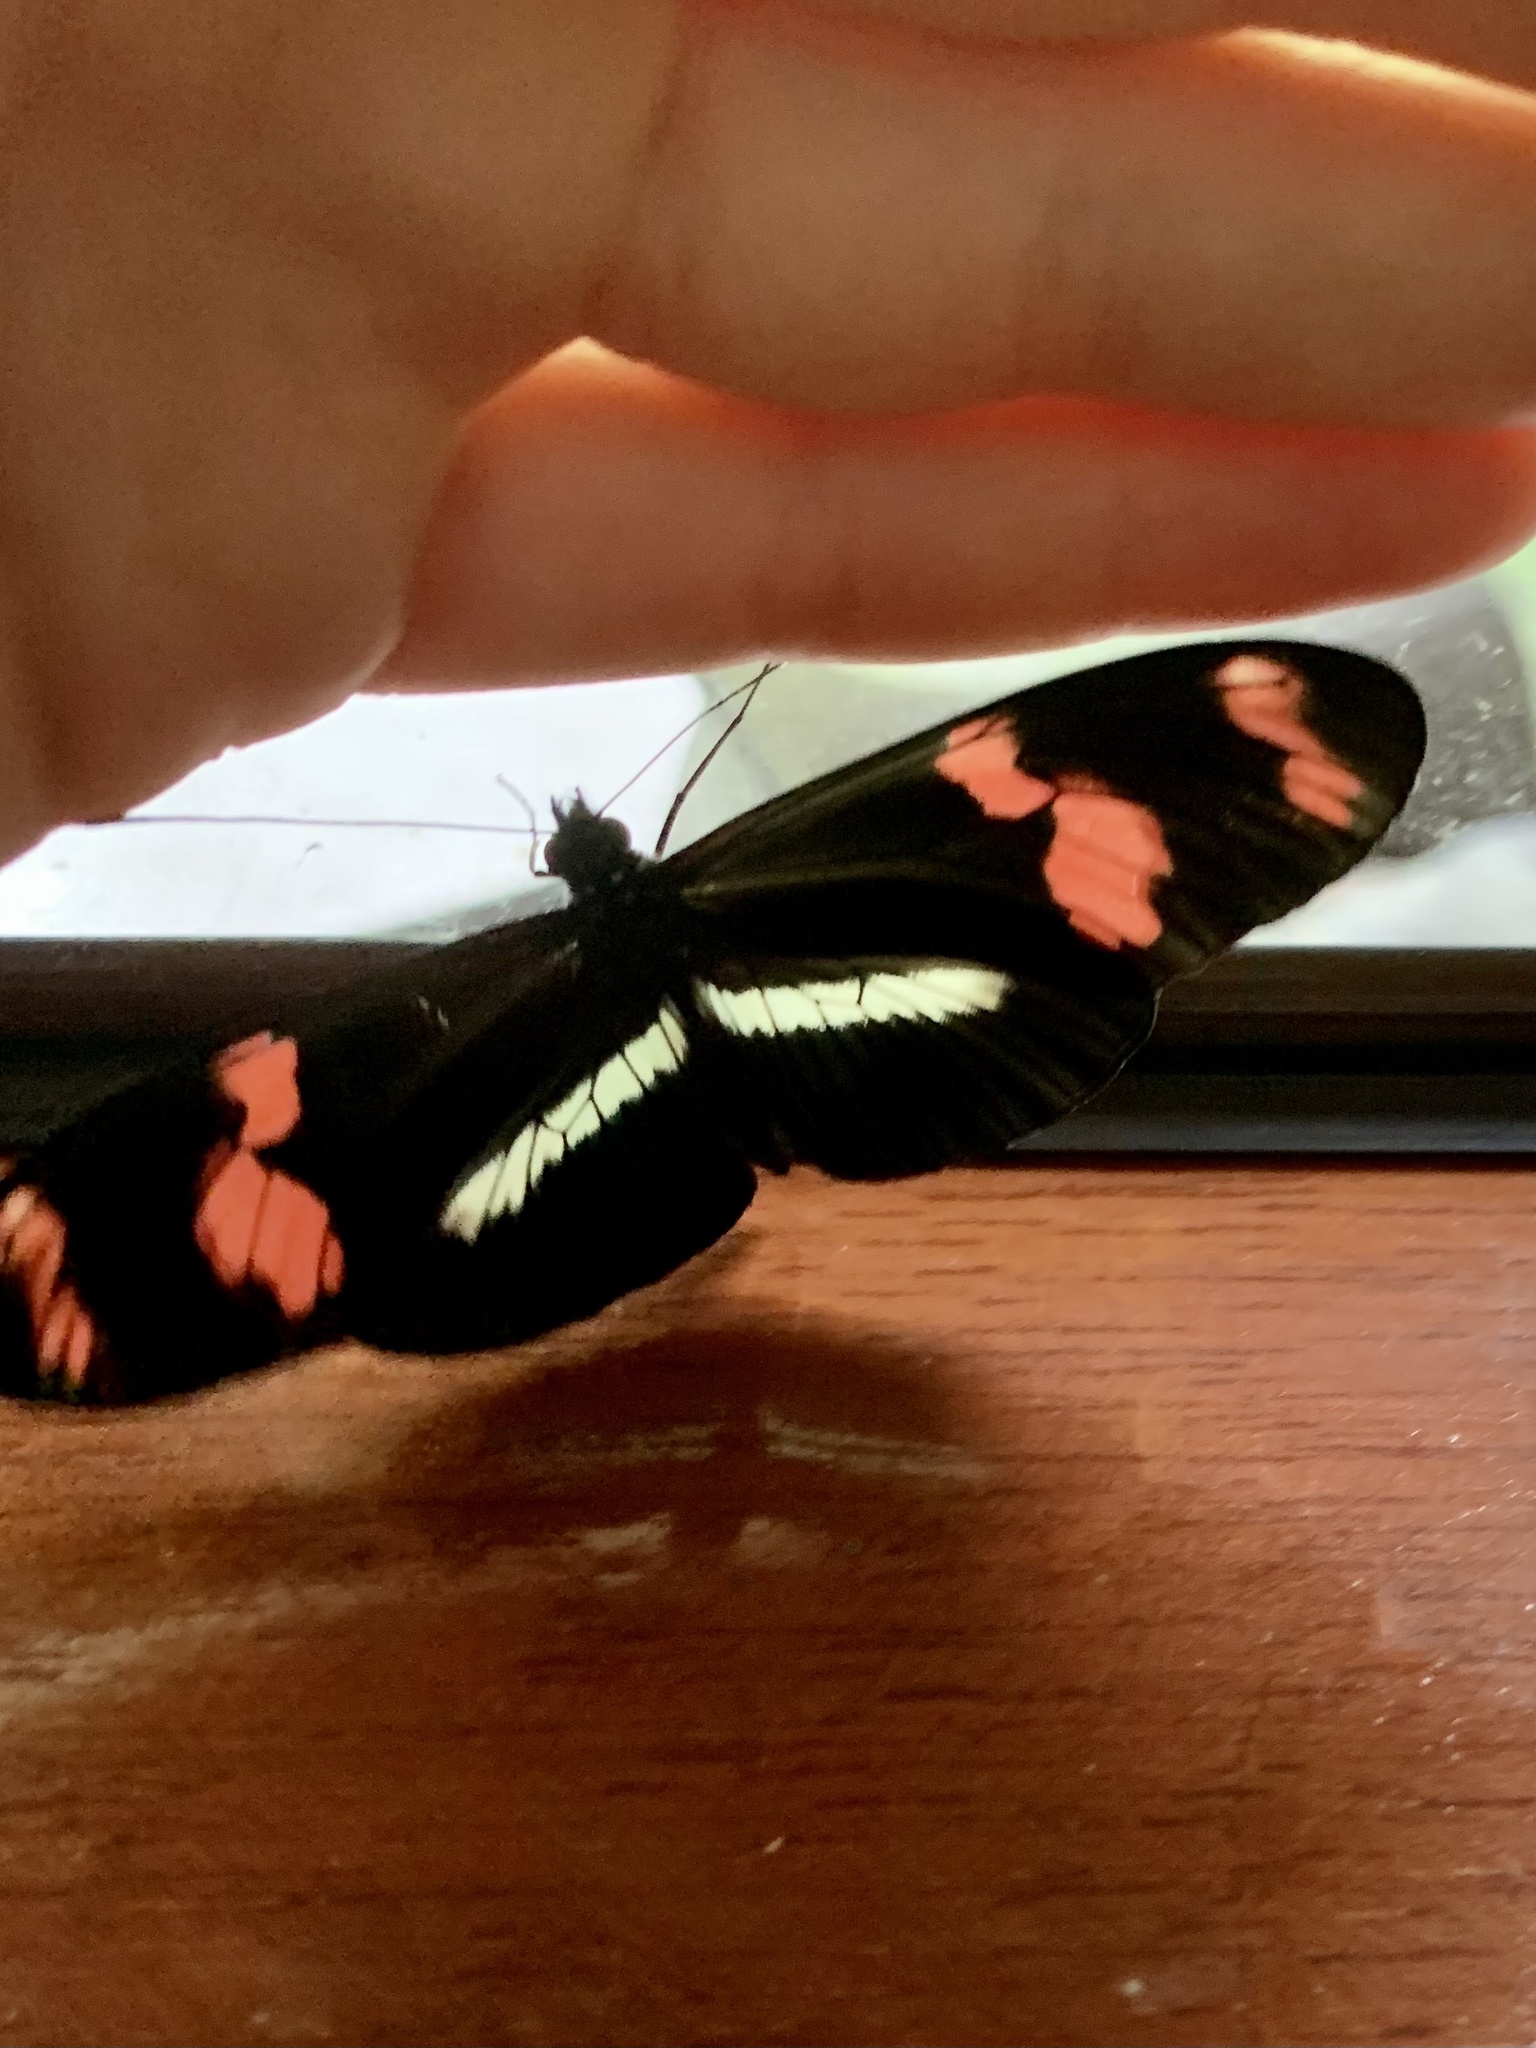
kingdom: Animalia
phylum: Arthropoda
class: Insecta
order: Lepidoptera
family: Nymphalidae
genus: Heliconius
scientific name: Heliconius telesiphe
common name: Telesiphe longwing
